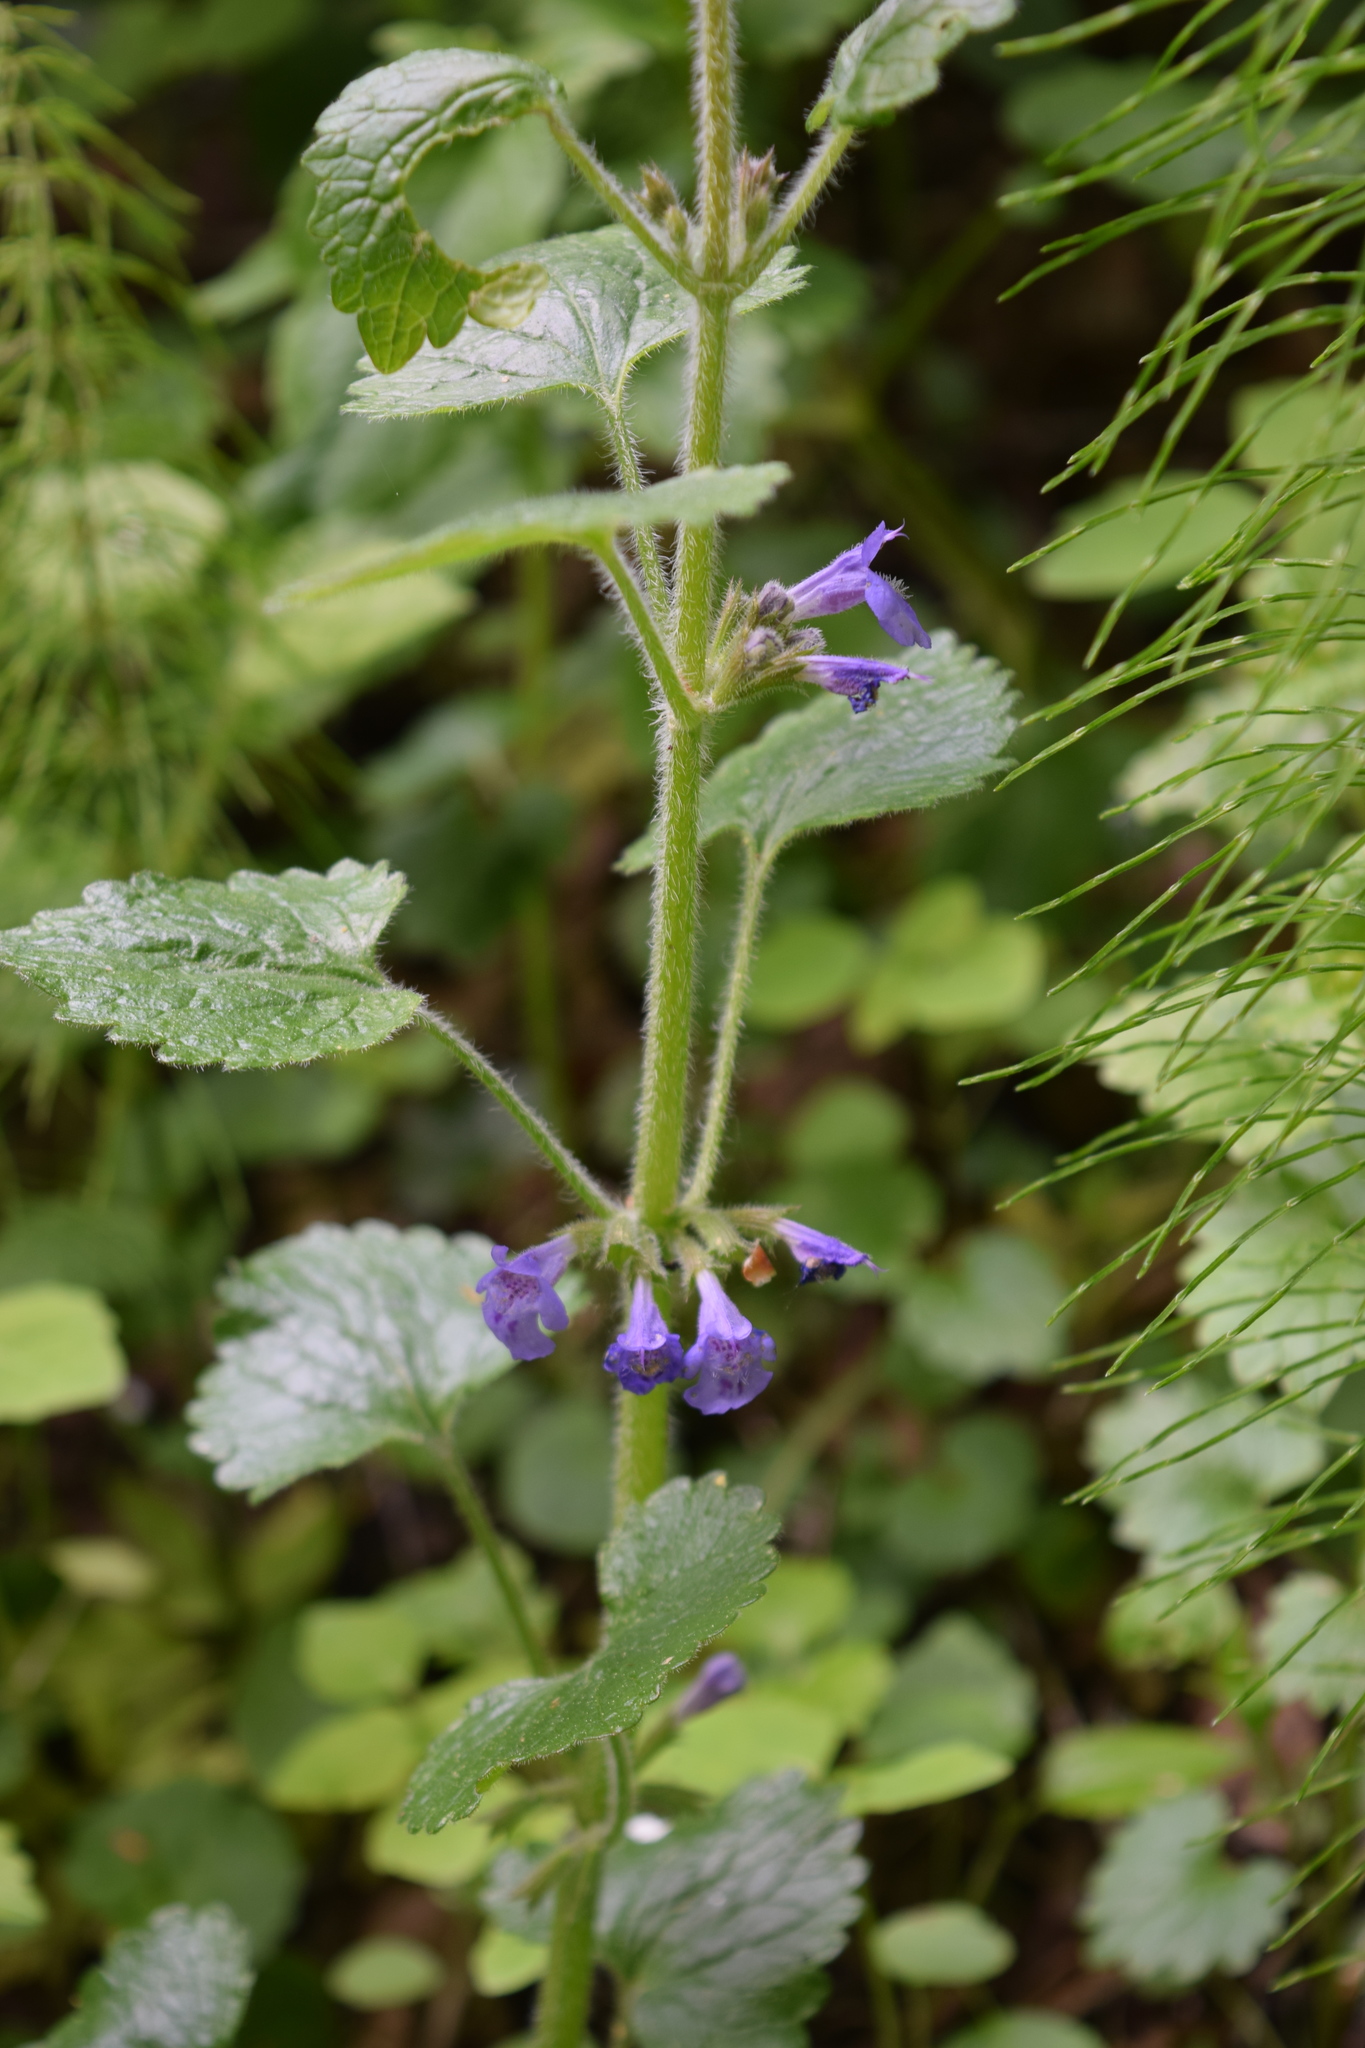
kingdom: Plantae
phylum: Tracheophyta
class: Magnoliopsida
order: Lamiales
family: Lamiaceae
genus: Glechoma
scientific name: Glechoma hederacea
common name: Ground ivy
